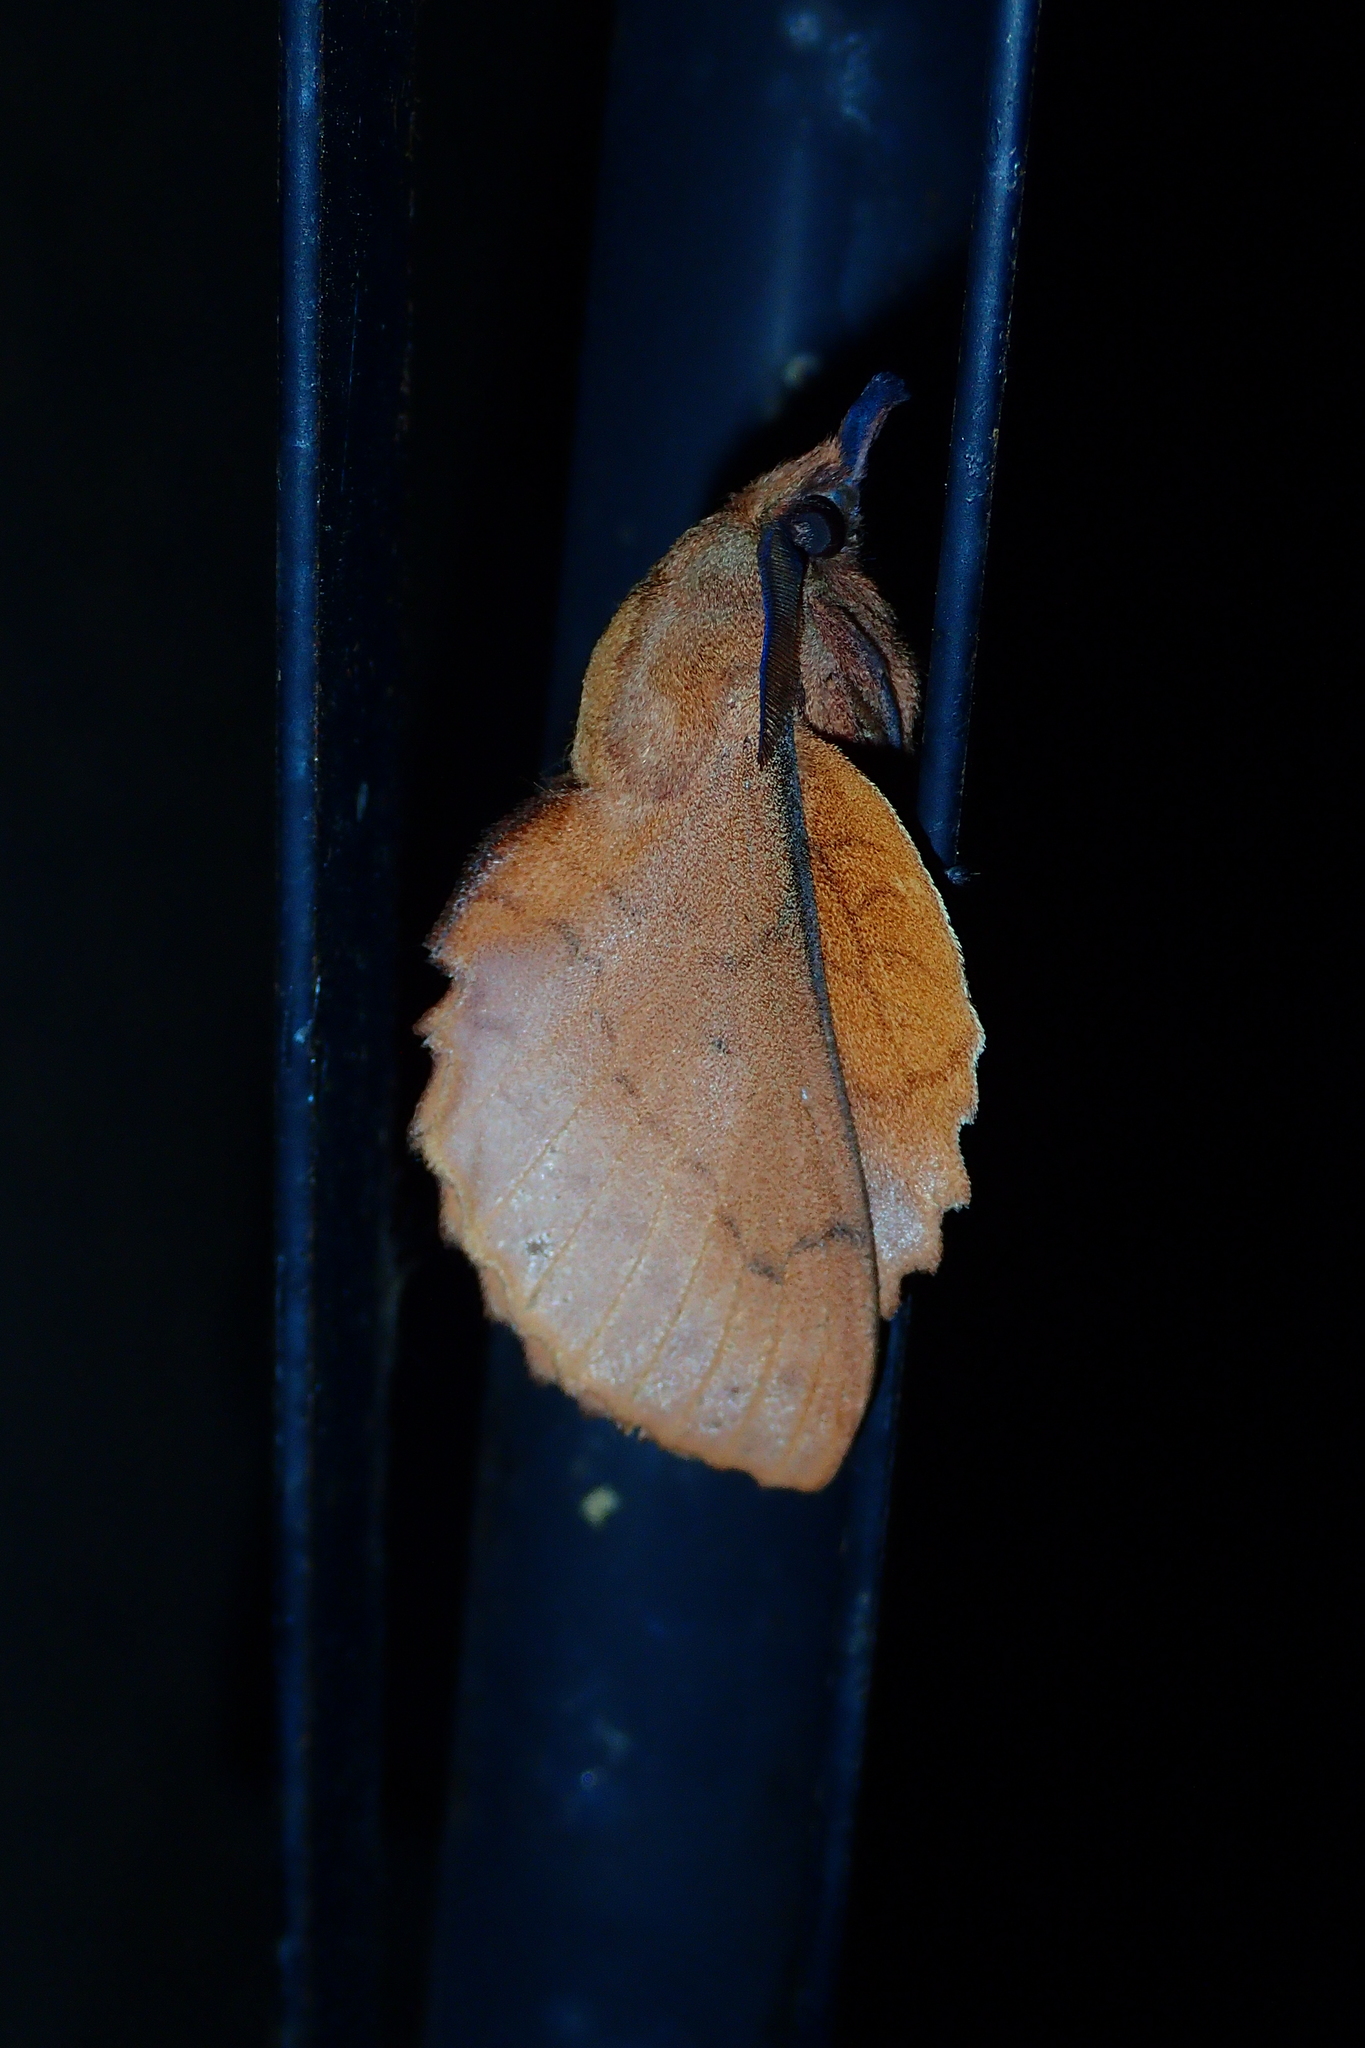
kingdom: Animalia
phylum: Arthropoda
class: Insecta
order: Lepidoptera
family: Lasiocampidae
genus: Gastropacha
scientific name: Gastropacha quercifolia
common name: Lappet
